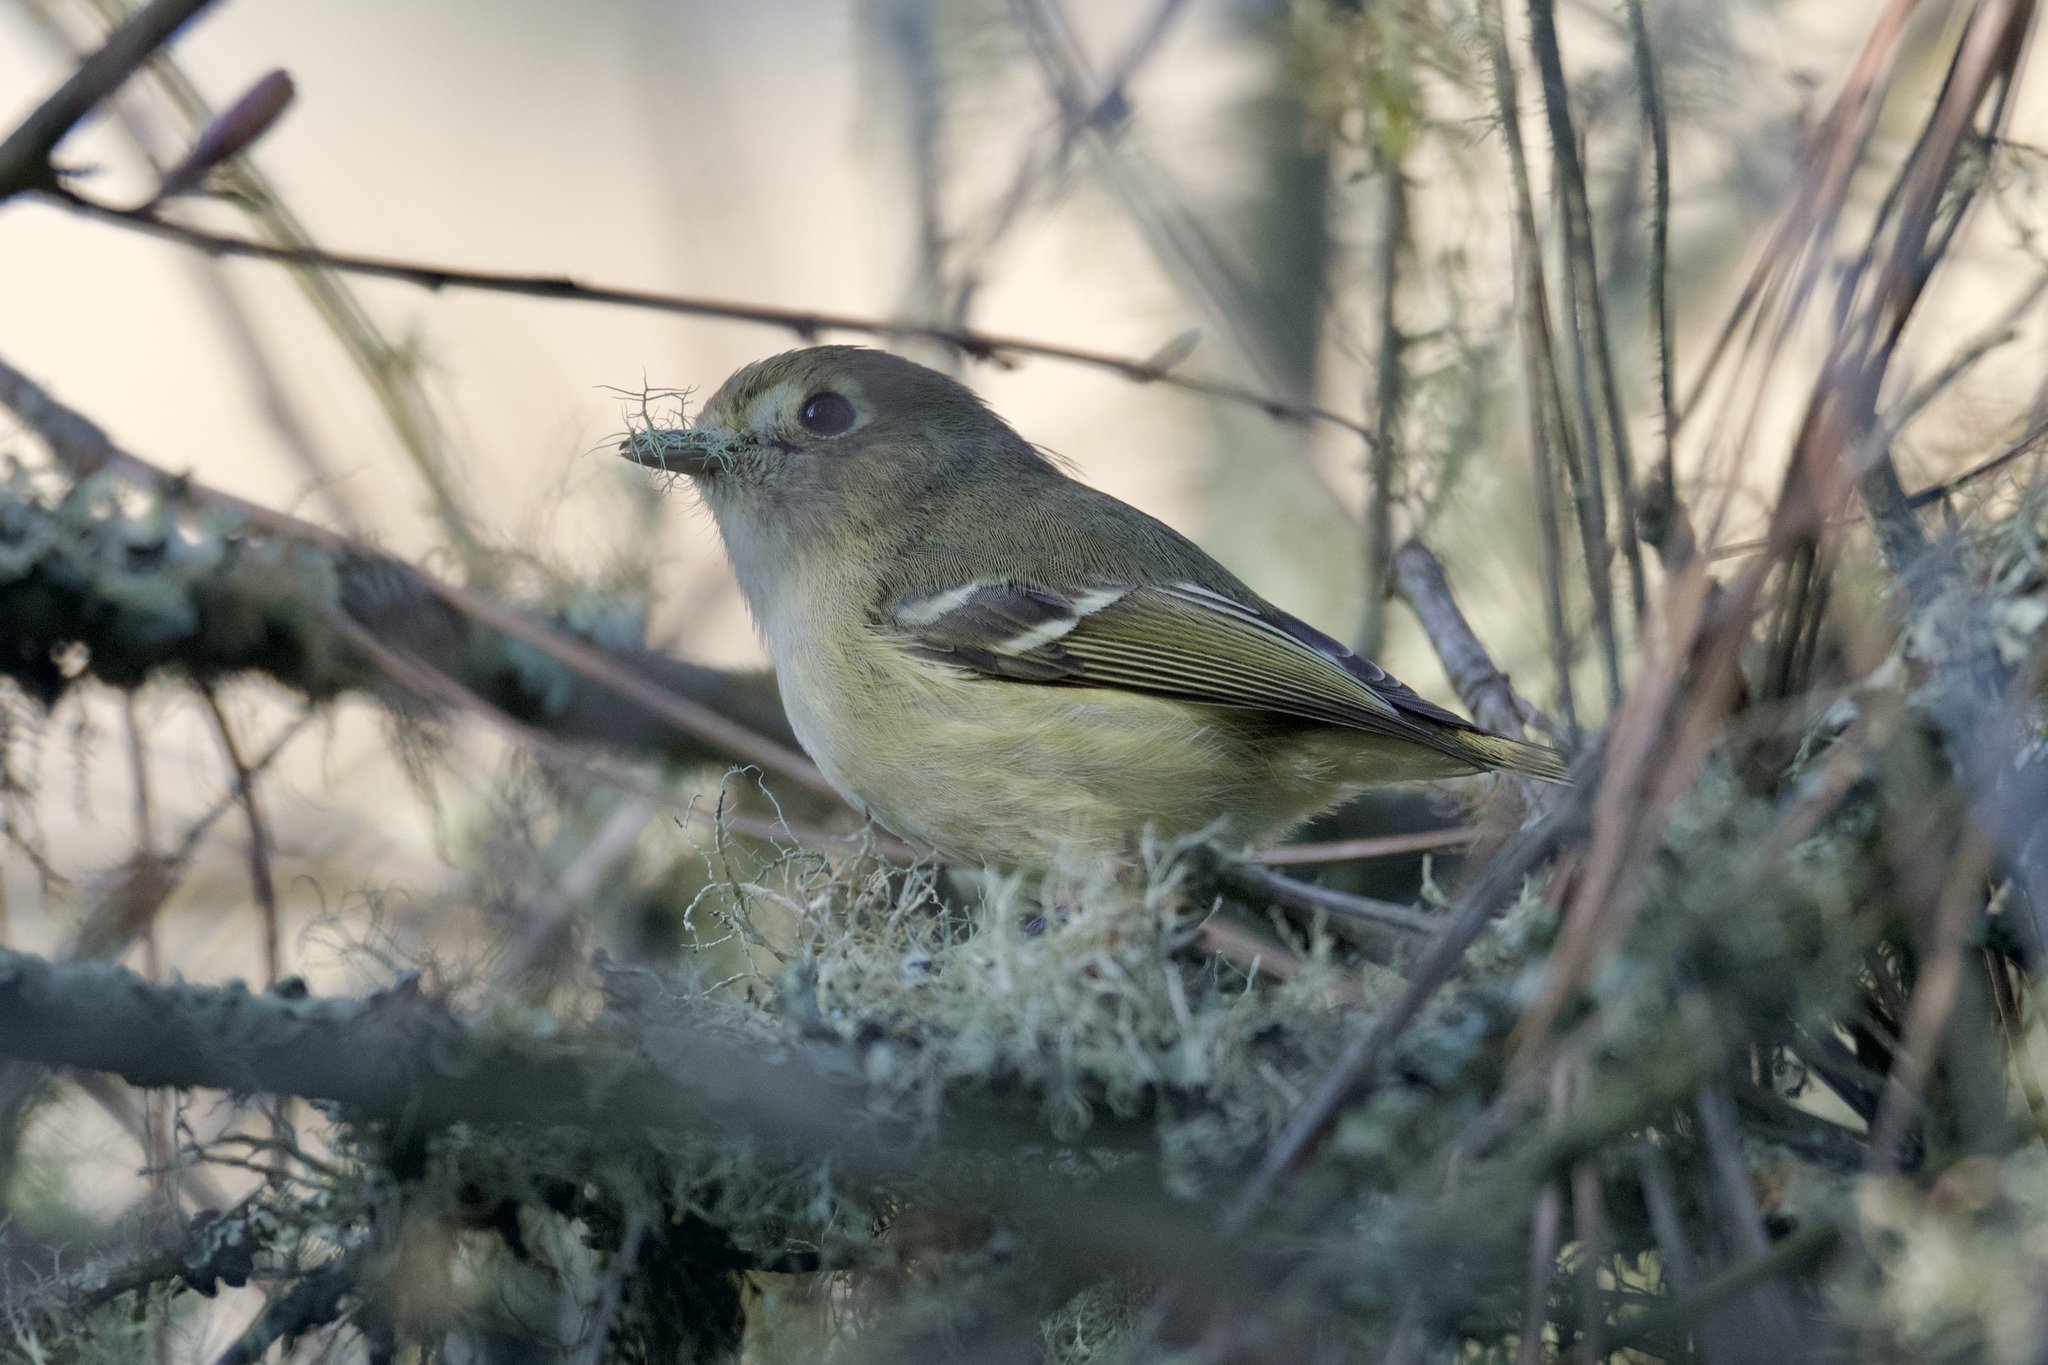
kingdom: Animalia
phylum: Chordata
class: Aves
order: Passeriformes
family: Vireonidae
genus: Vireo
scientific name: Vireo huttoni
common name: Hutton's vireo
